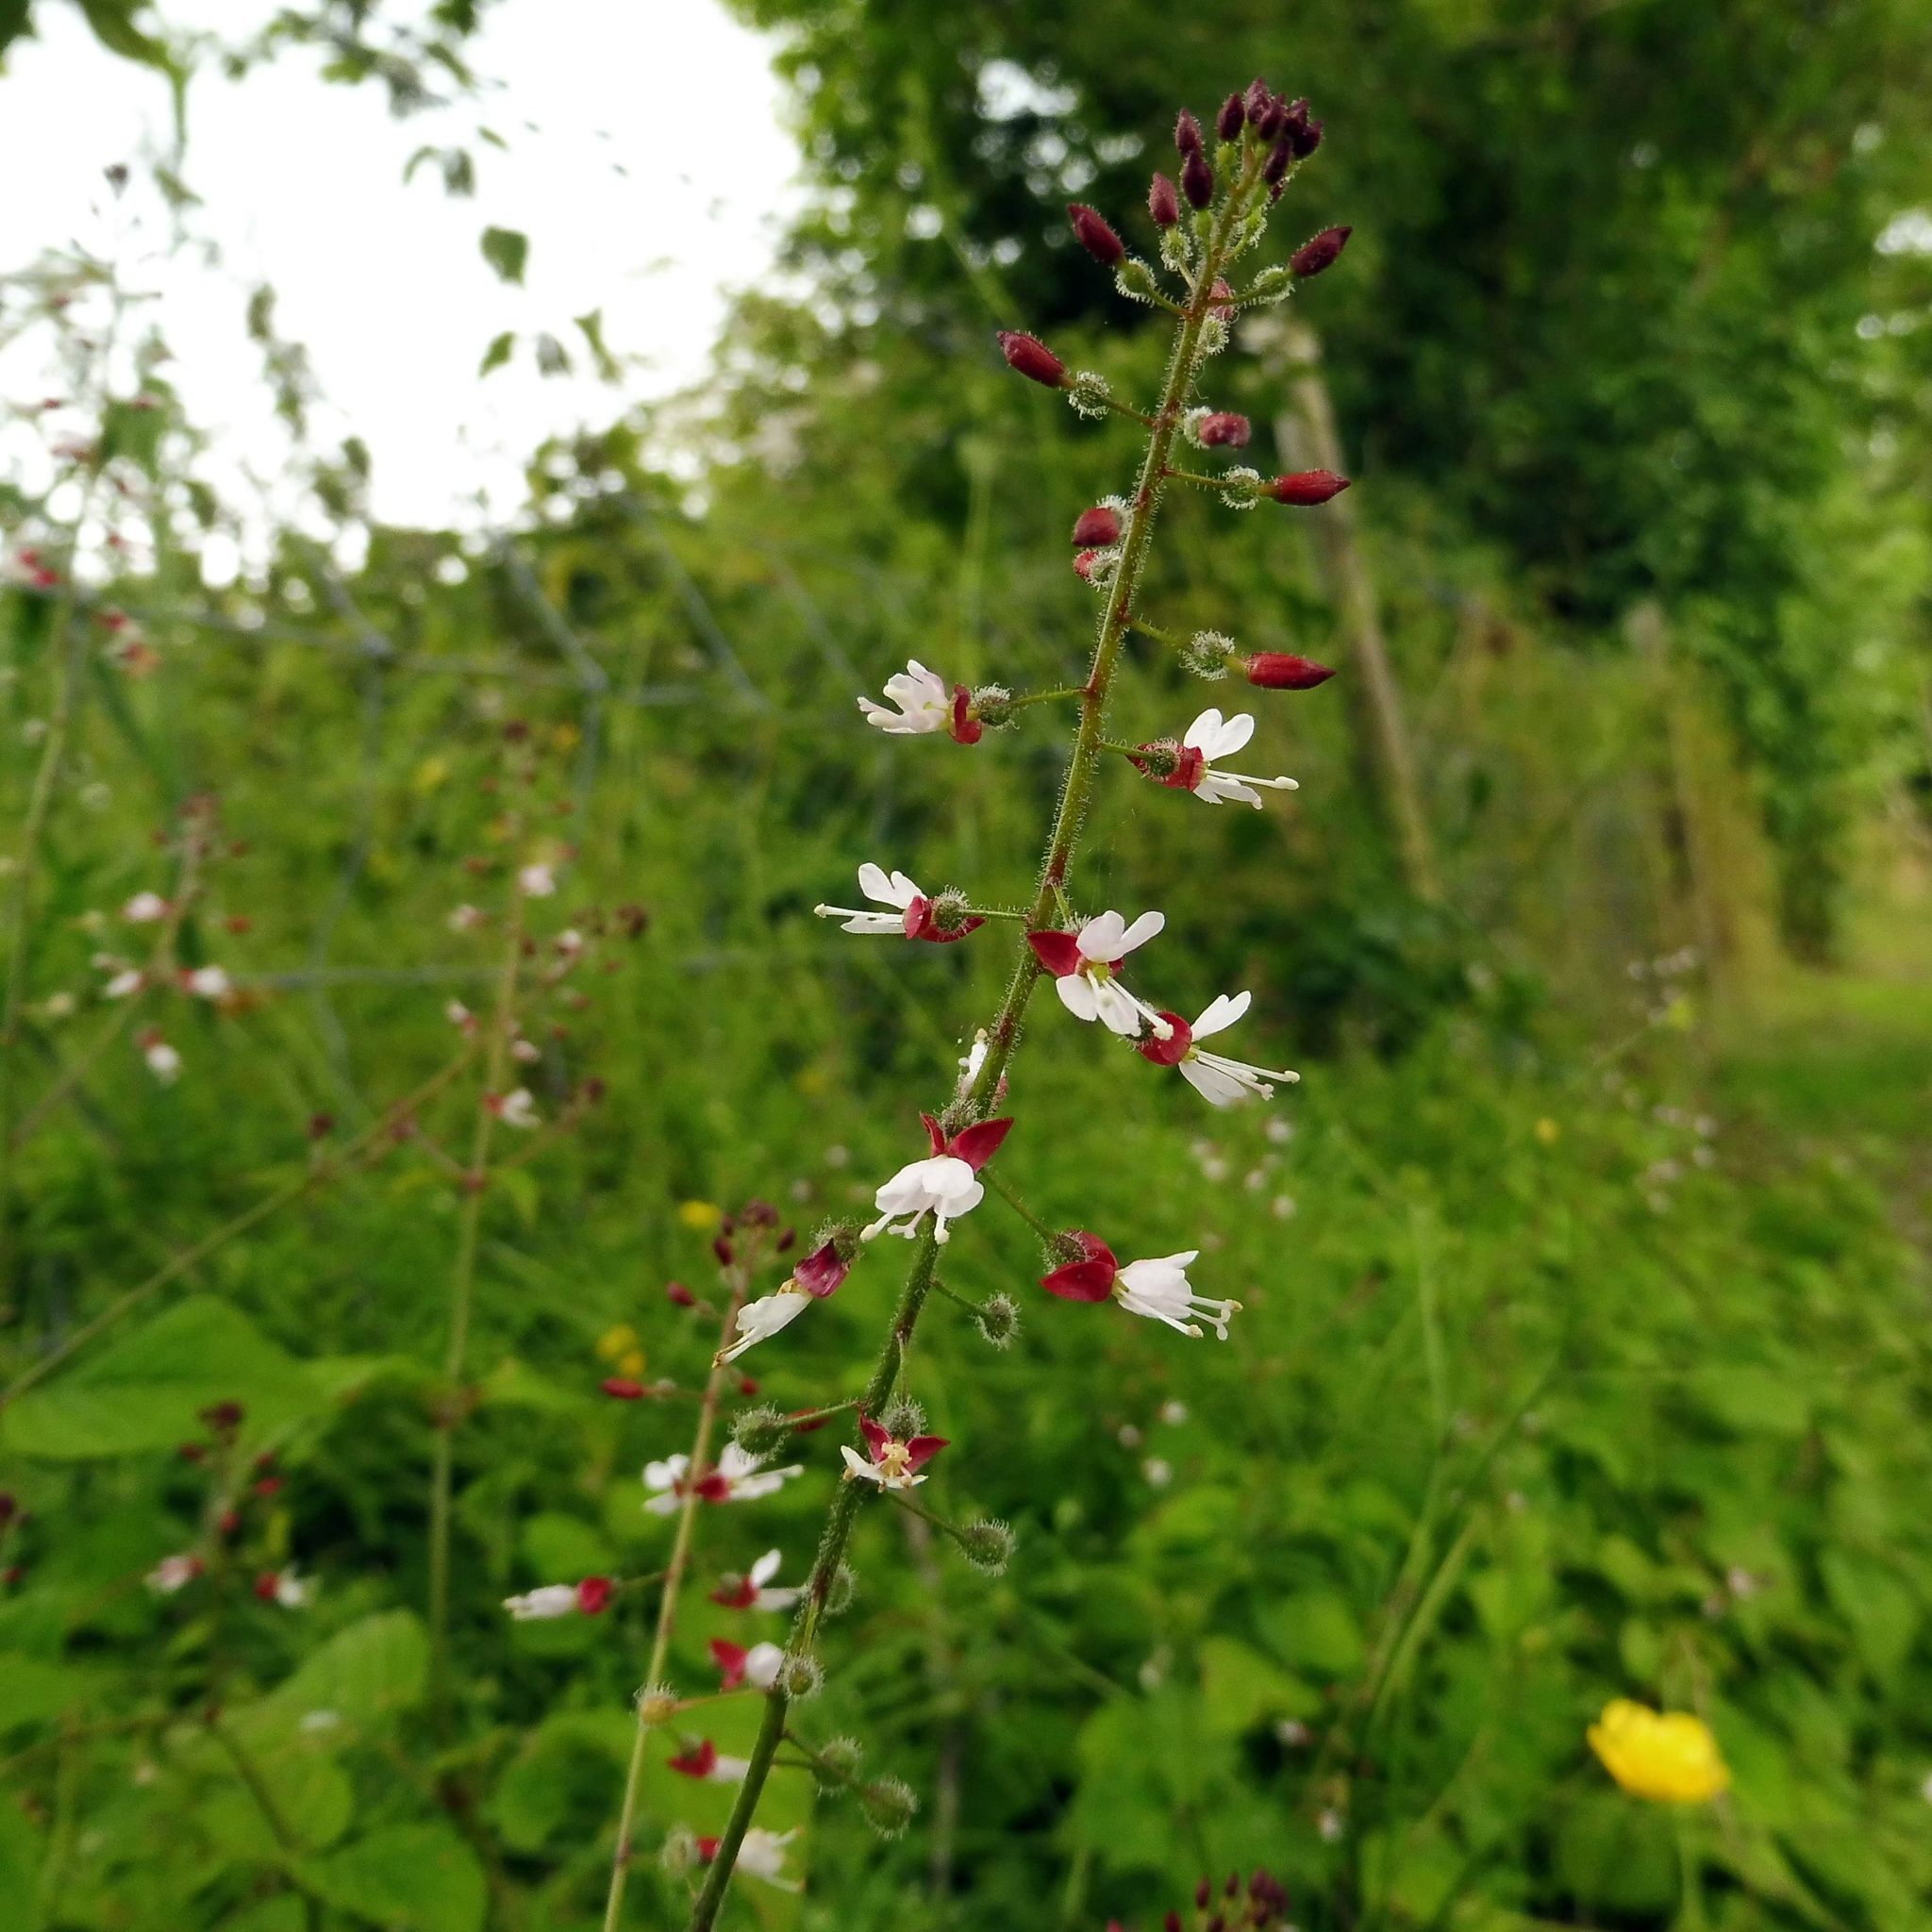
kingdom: Plantae
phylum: Tracheophyta
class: Magnoliopsida
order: Myrtales
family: Onagraceae
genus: Circaea
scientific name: Circaea lutetiana
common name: Enchanter's-nightshade
